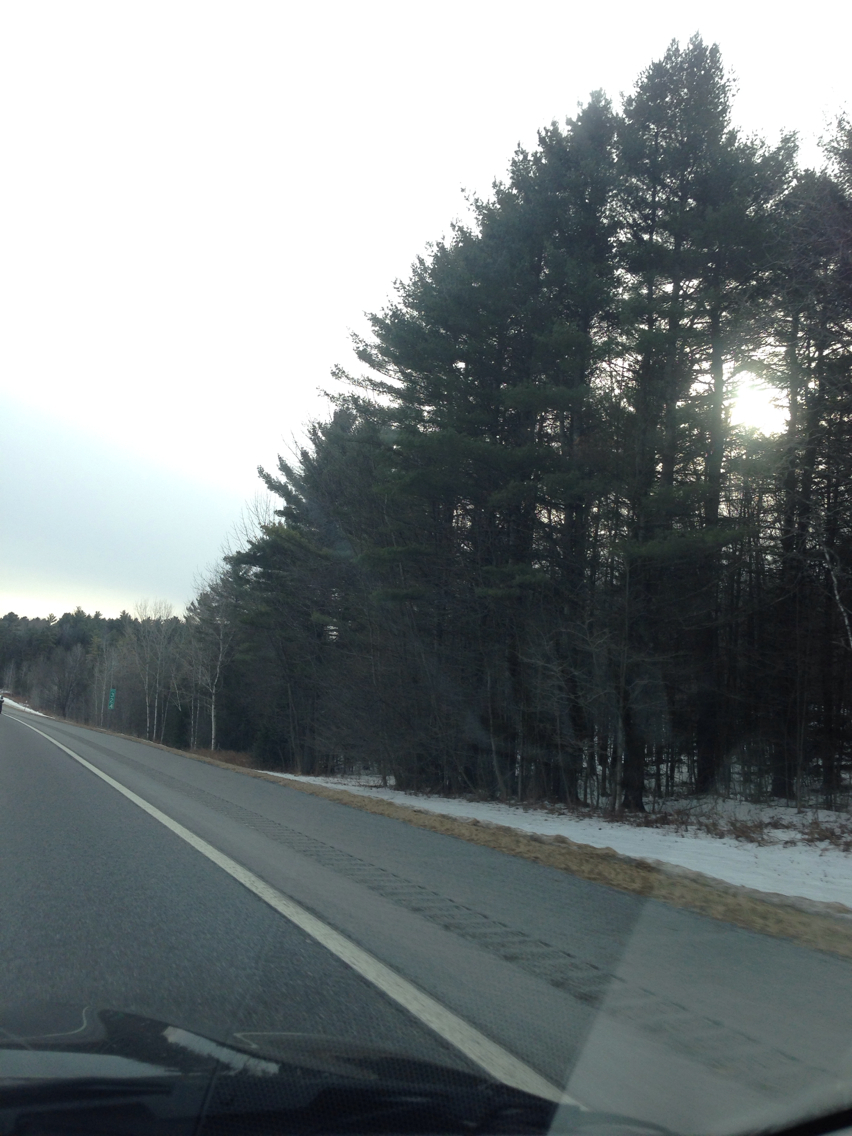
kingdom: Plantae
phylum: Tracheophyta
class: Pinopsida
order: Pinales
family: Pinaceae
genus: Pinus
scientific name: Pinus strobus
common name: Weymouth pine
